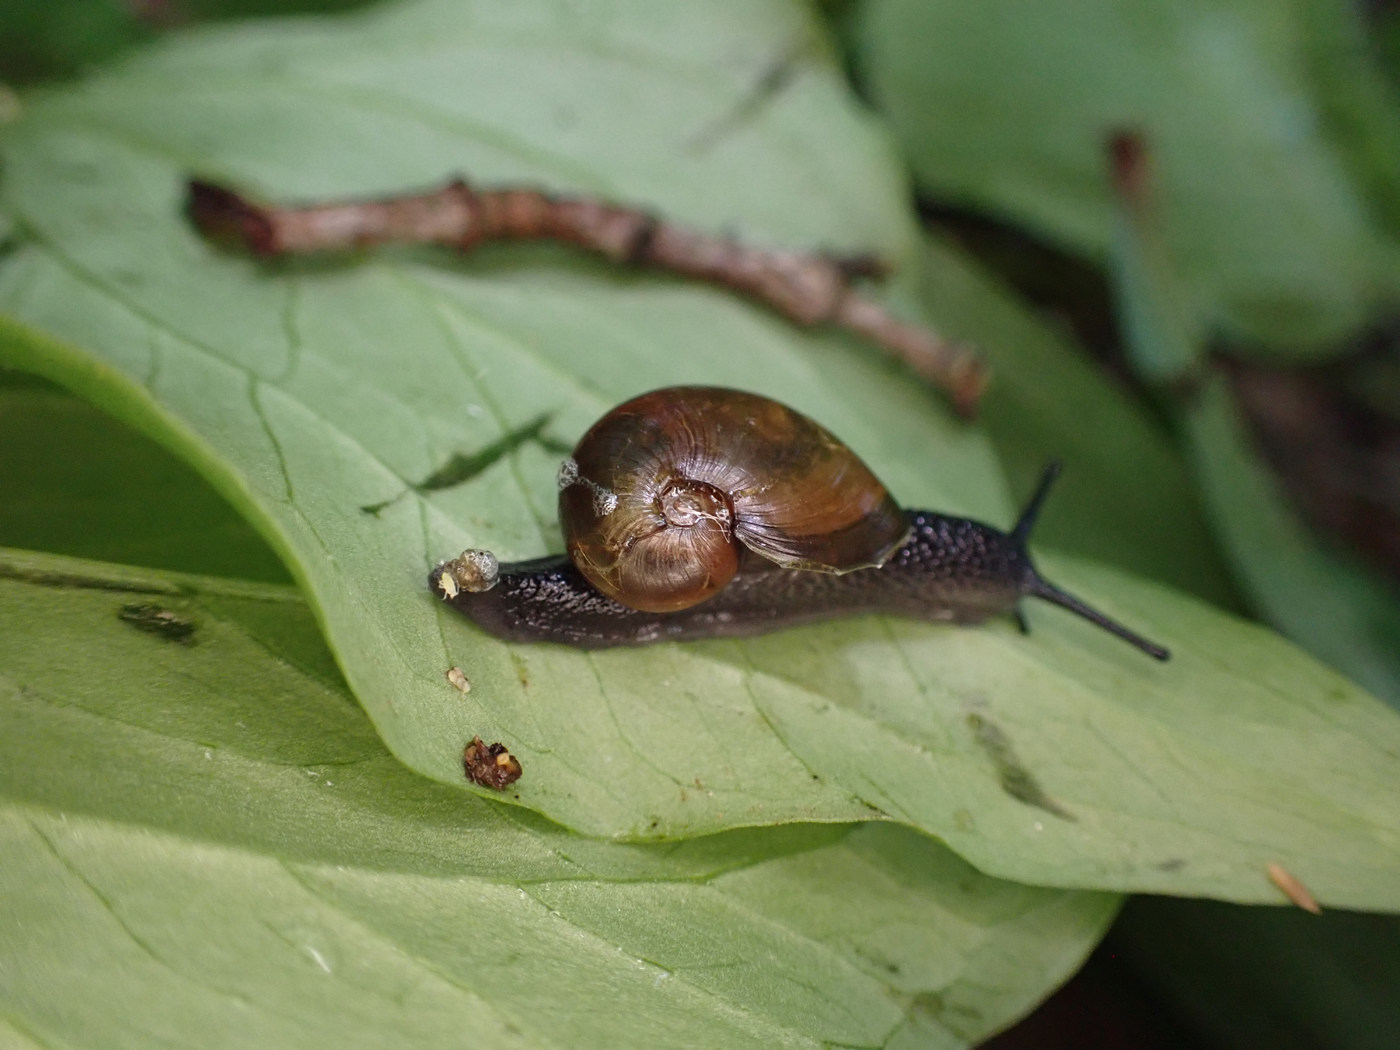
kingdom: Animalia
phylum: Mollusca
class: Gastropoda
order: Stylommatophora
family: Gastrodontidae
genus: Vitrinizonites
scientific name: Vitrinizonites latissimus
